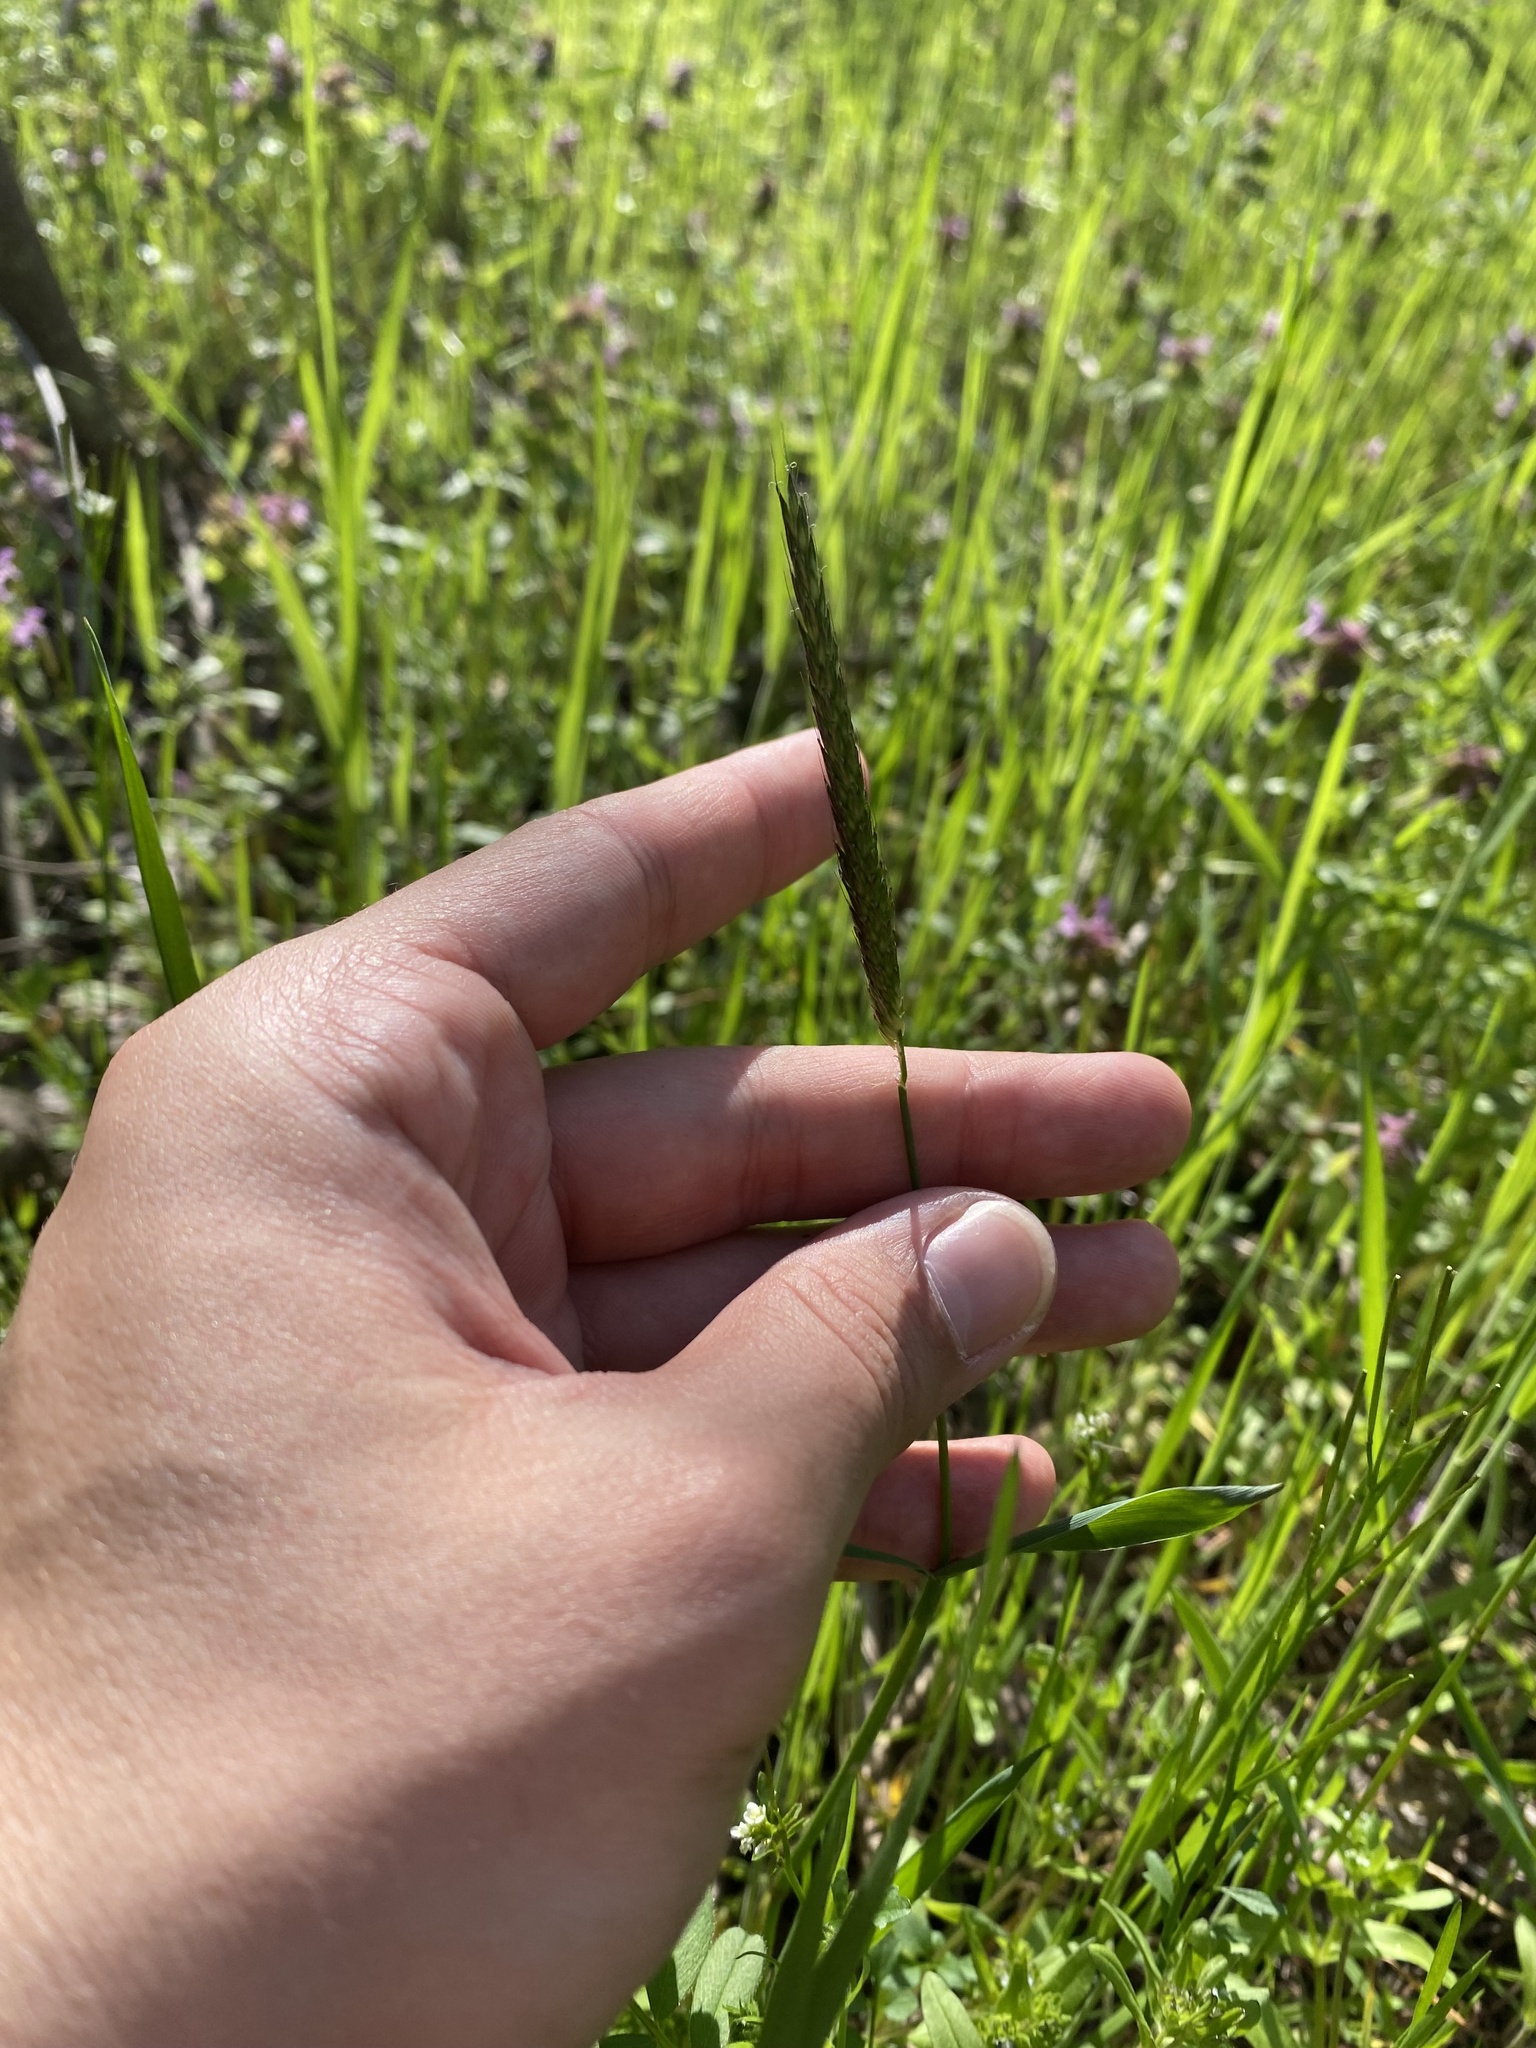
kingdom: Plantae
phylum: Tracheophyta
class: Liliopsida
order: Poales
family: Poaceae
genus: Alopecurus
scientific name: Alopecurus myosuroides
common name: Black-grass
